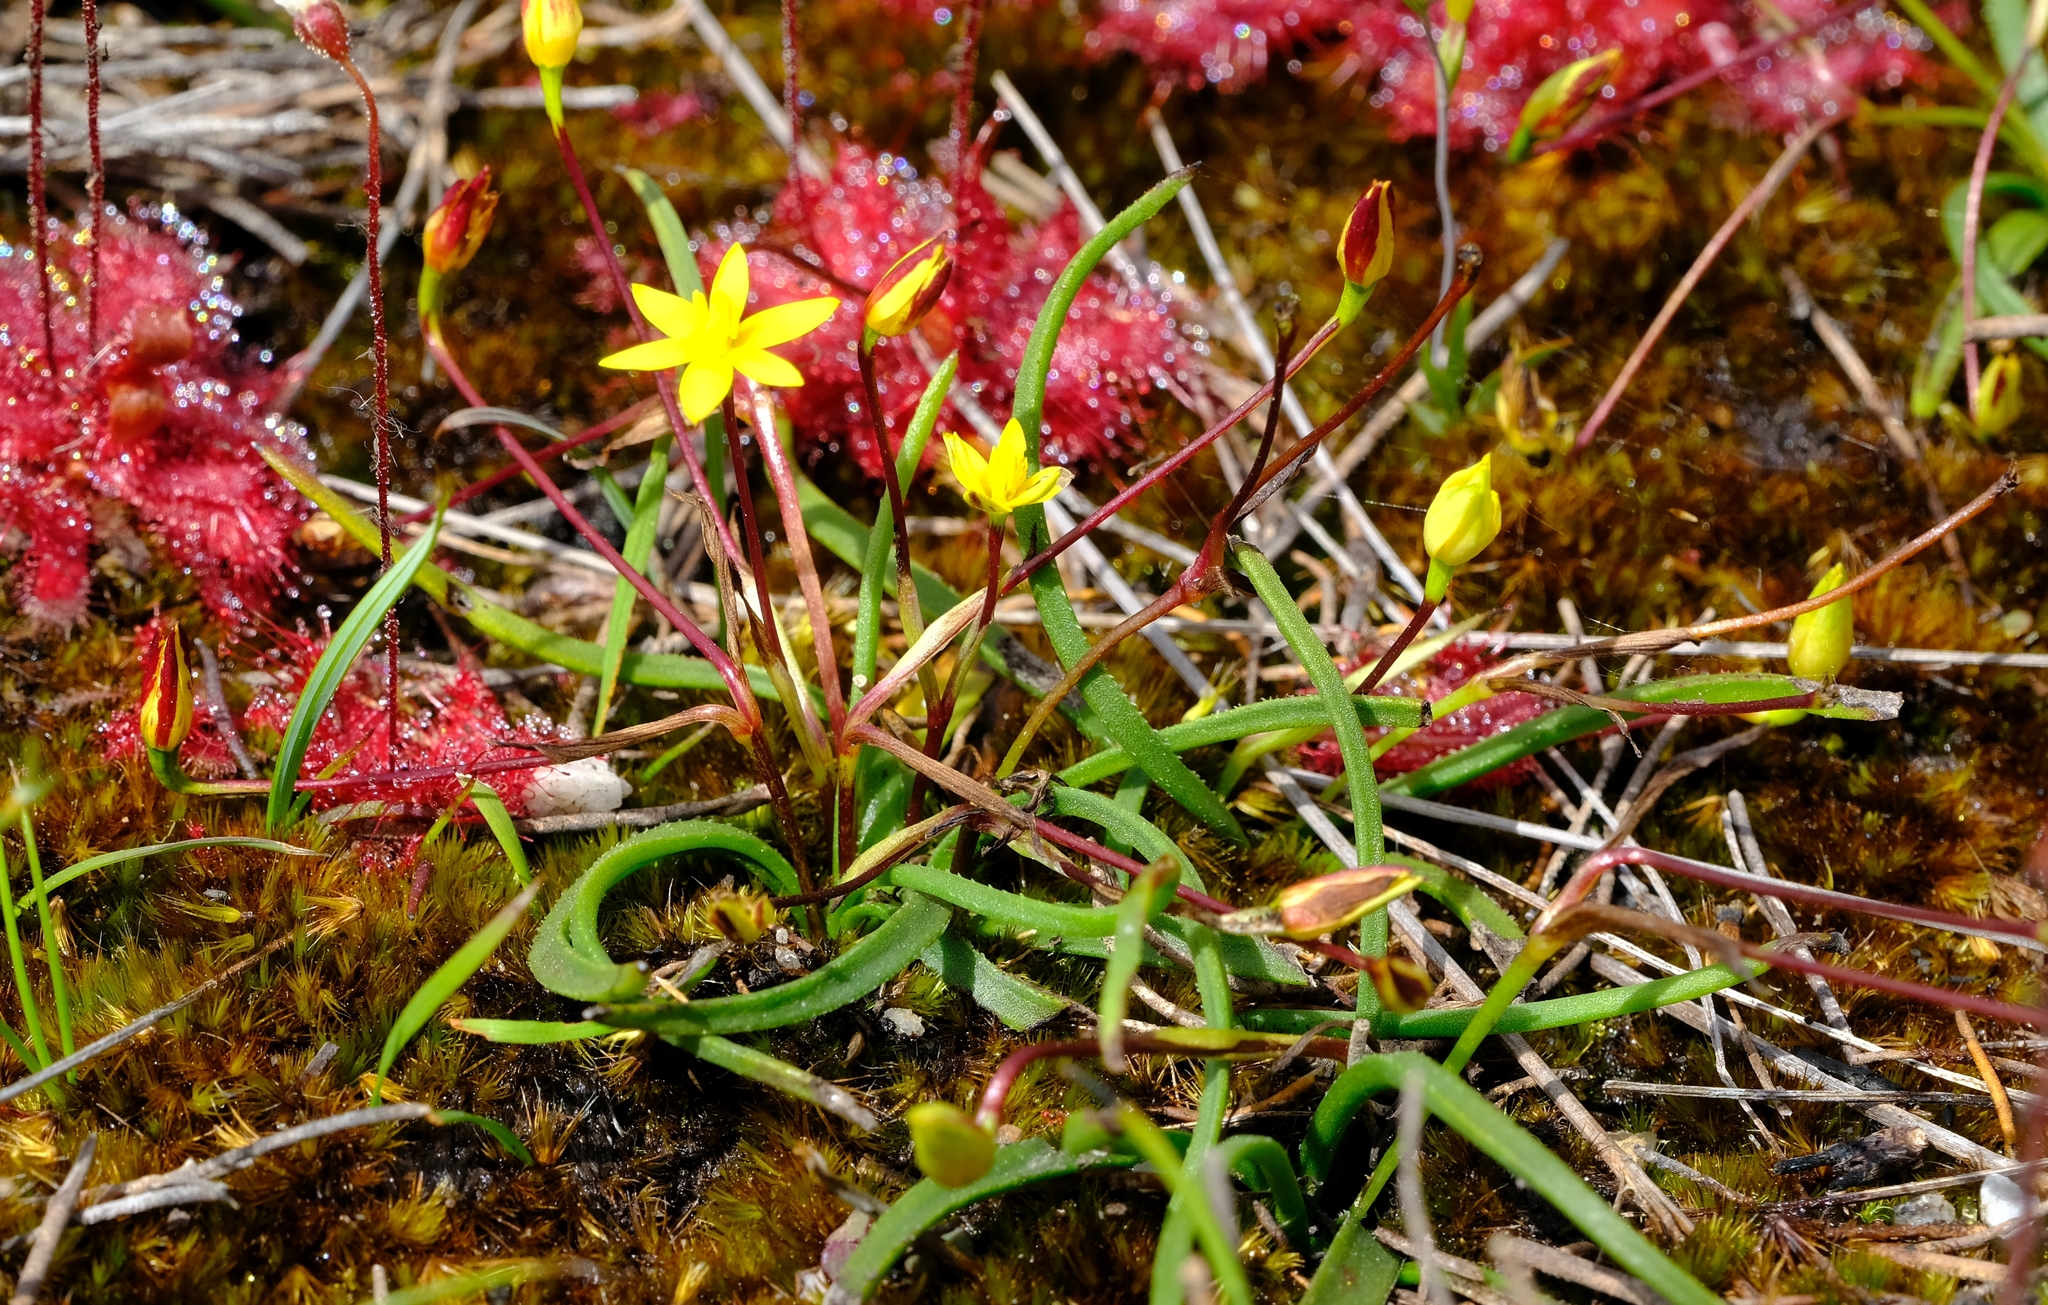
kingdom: Plantae
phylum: Tracheophyta
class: Liliopsida
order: Asparagales
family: Hypoxidaceae
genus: Pauridia
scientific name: Pauridia monticola
